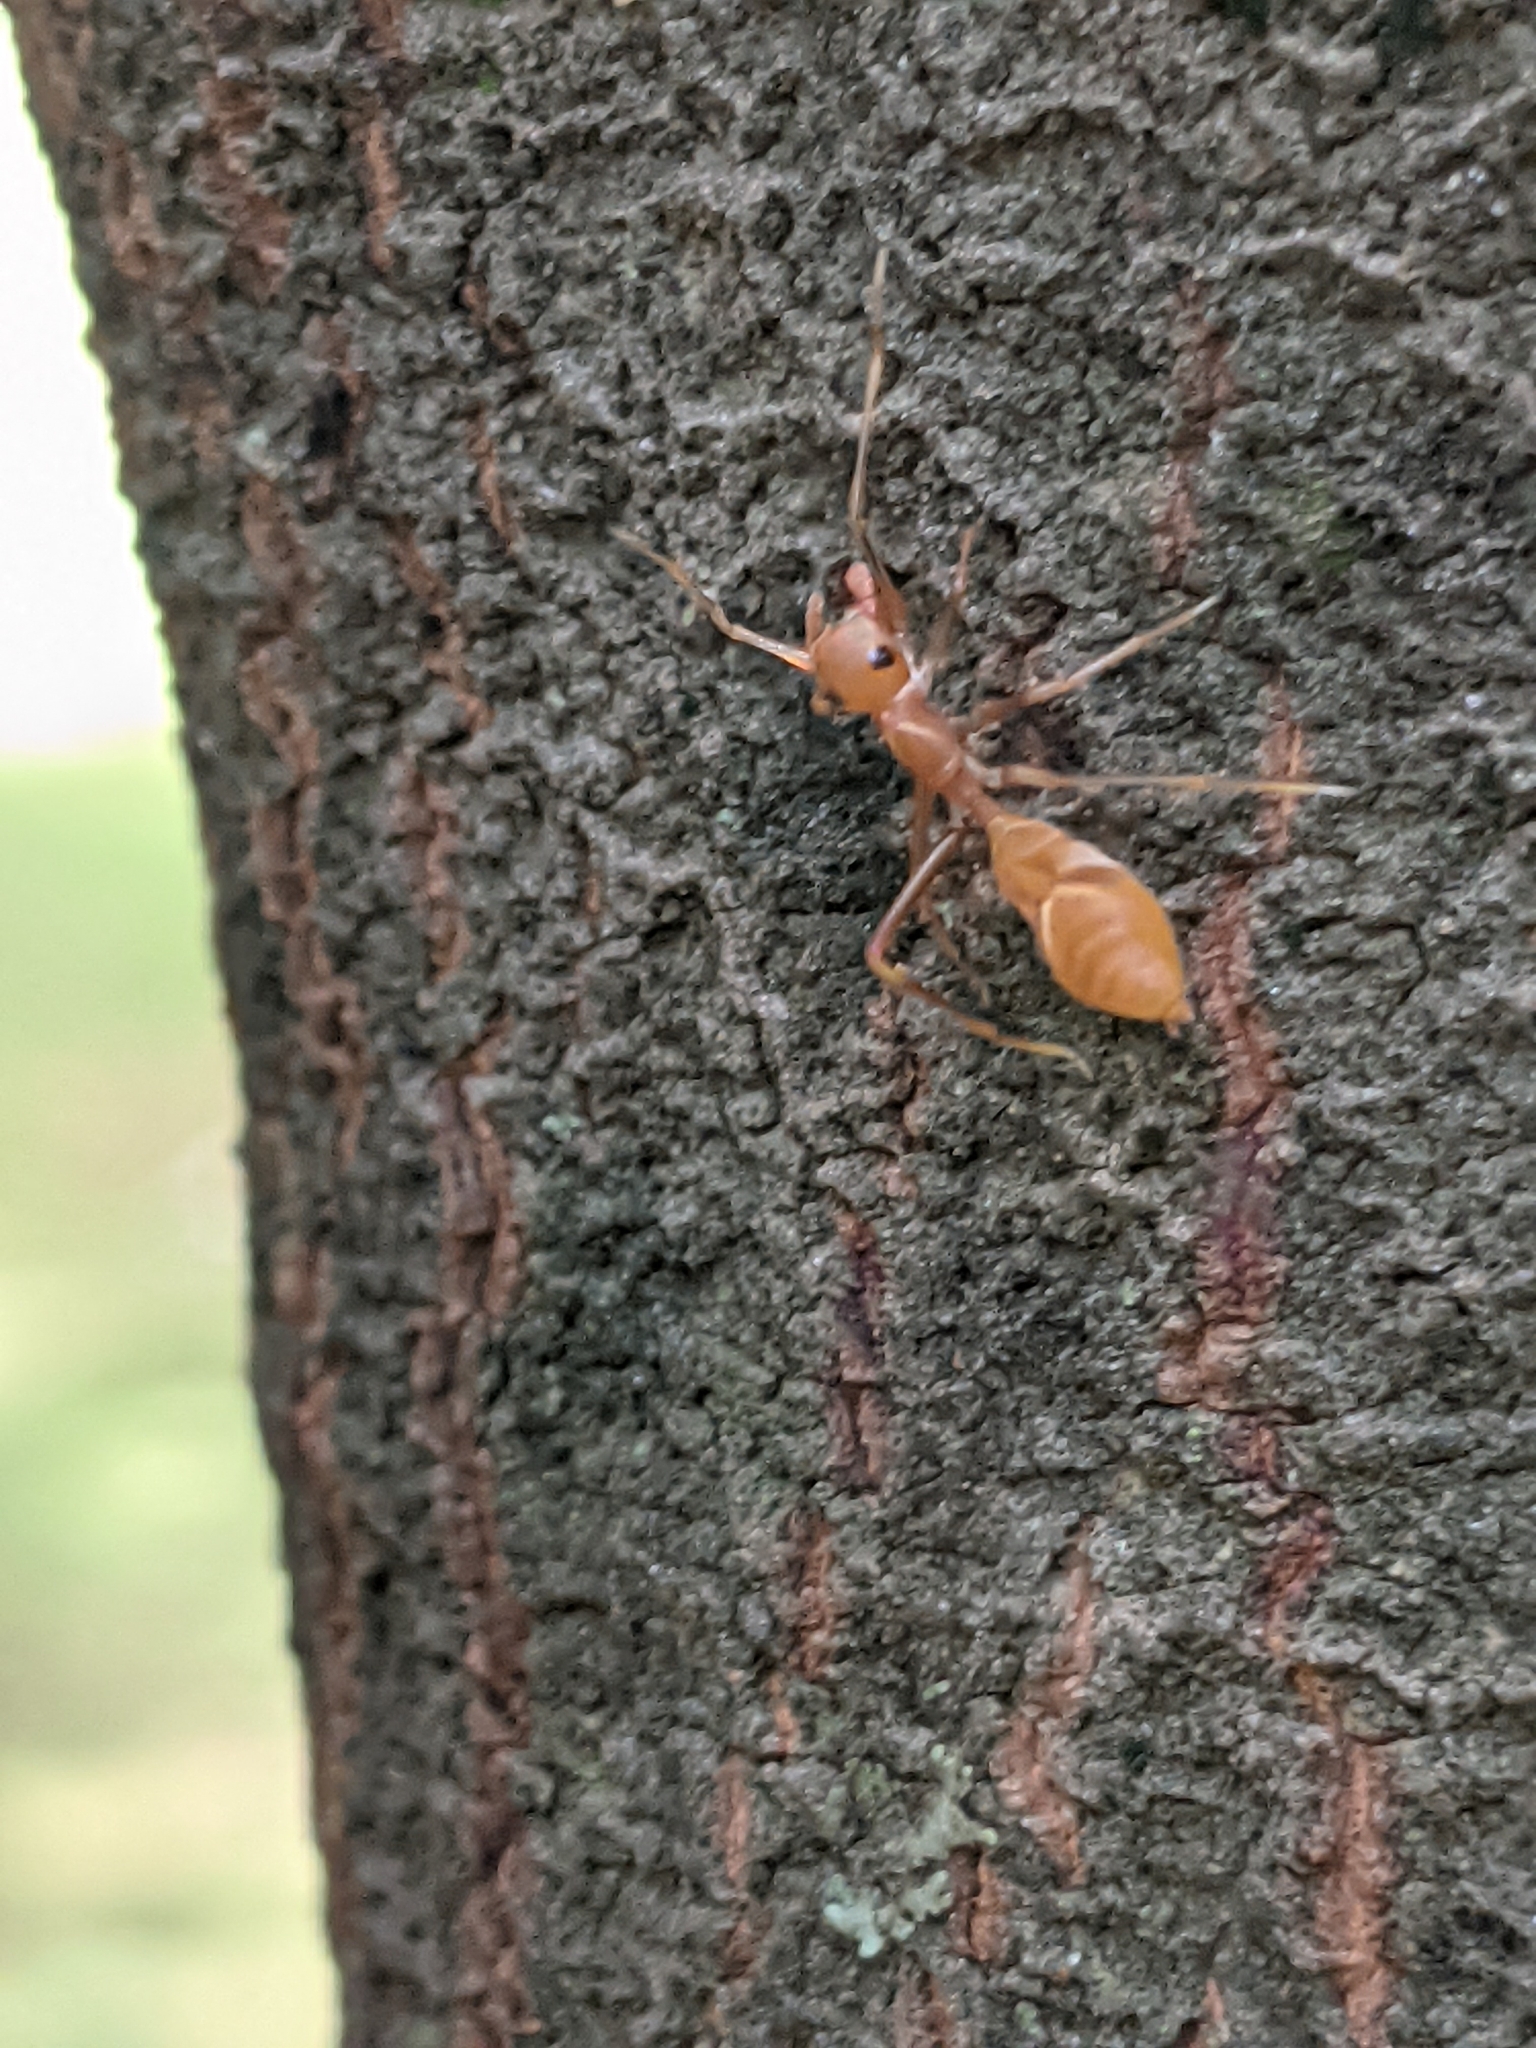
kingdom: Animalia
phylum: Arthropoda
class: Arachnida
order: Araneae
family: Salticidae
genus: Myrmaplata
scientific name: Myrmaplata plataleoides
